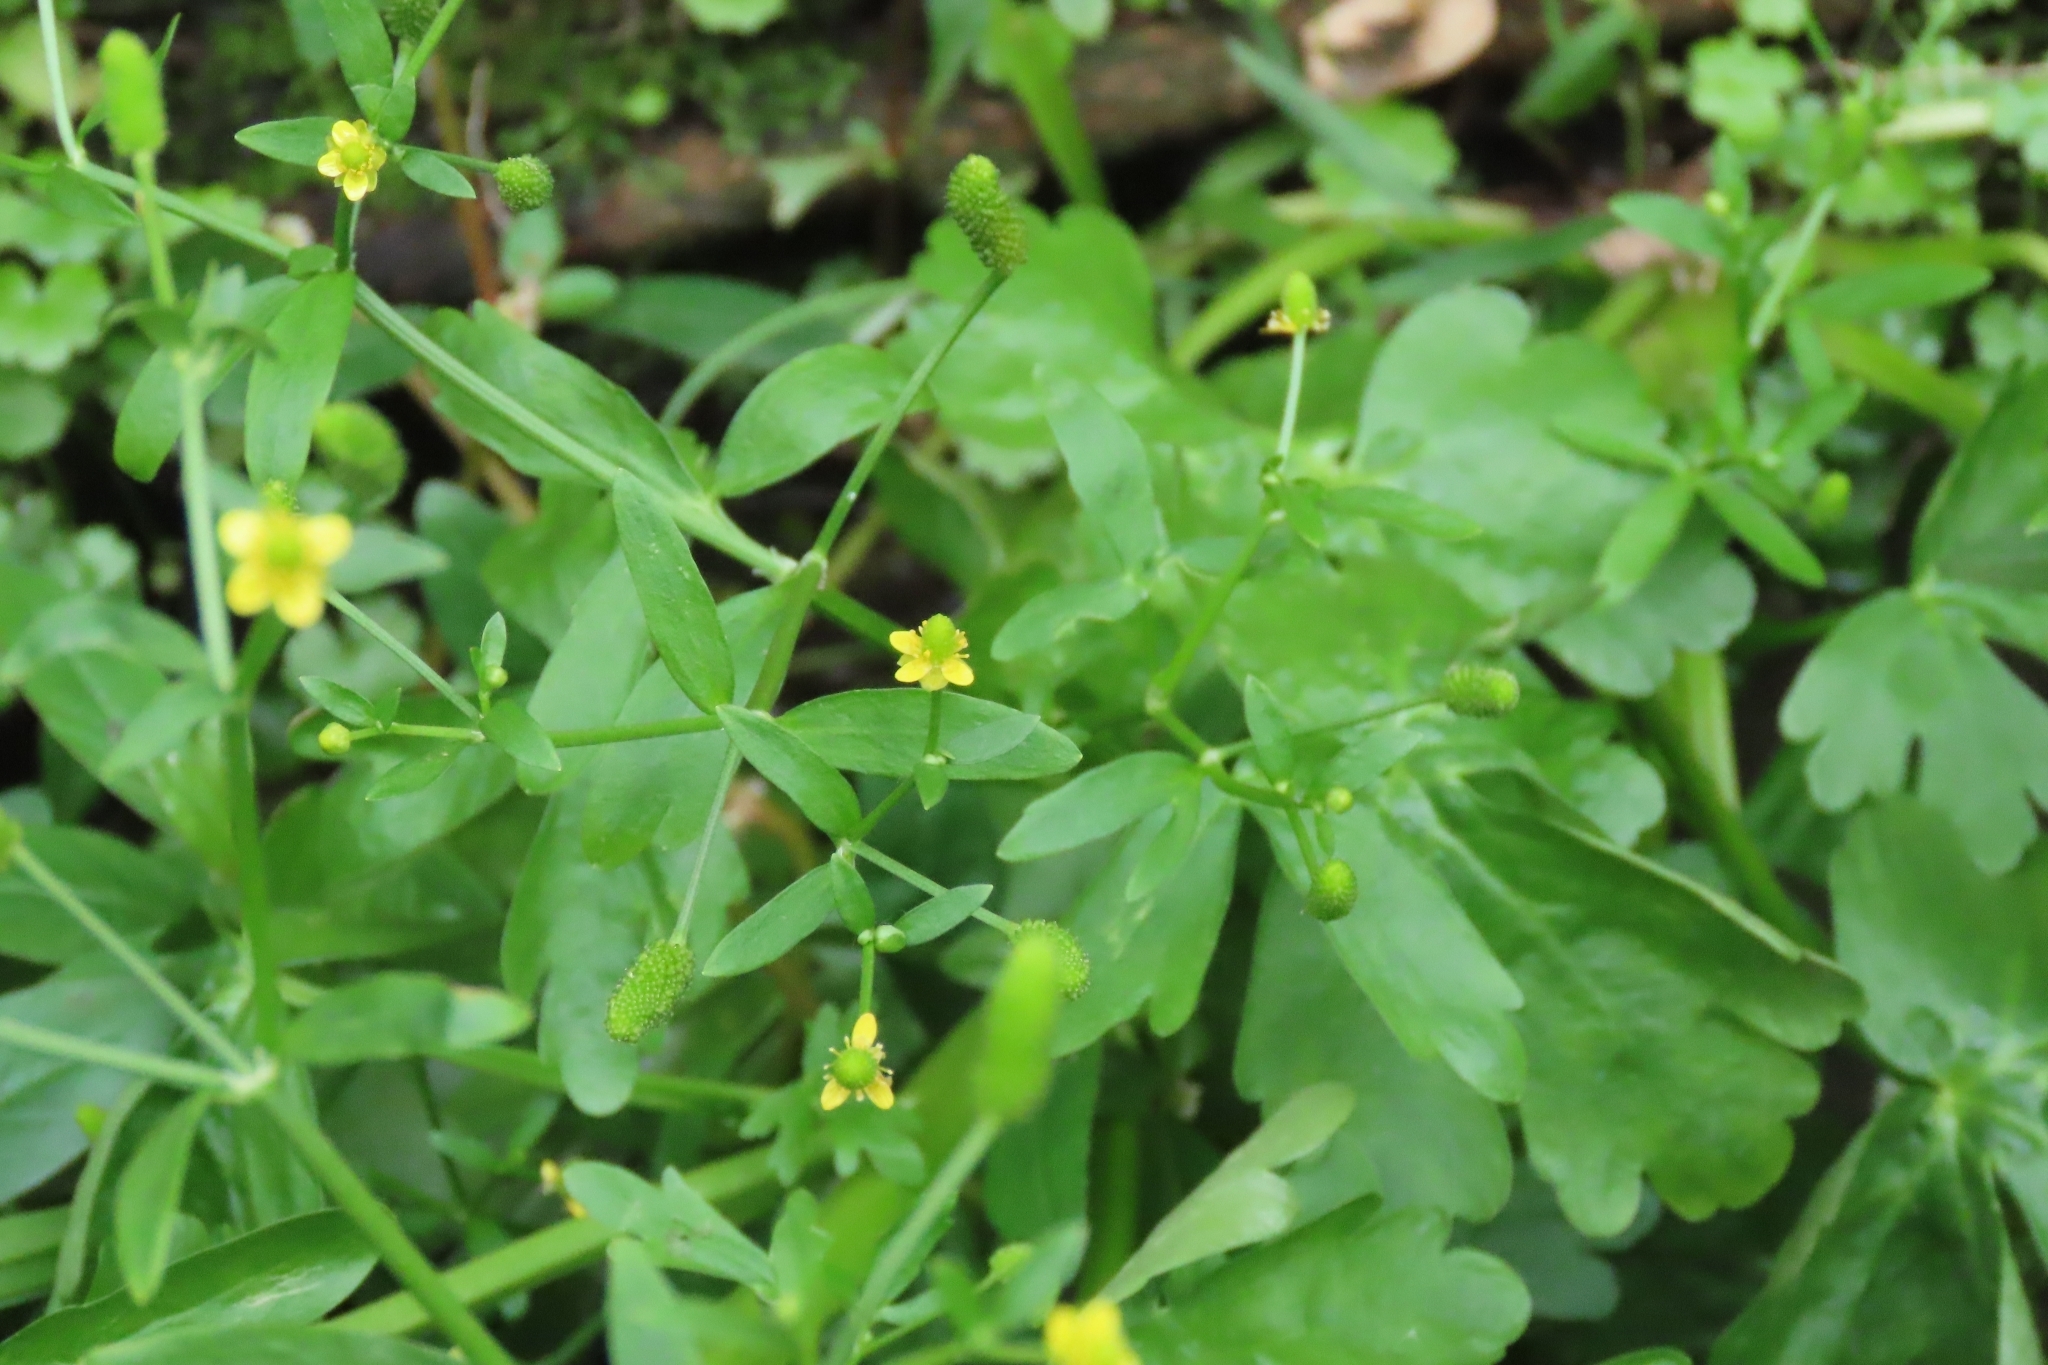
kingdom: Plantae
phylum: Tracheophyta
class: Magnoliopsida
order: Ranunculales
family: Ranunculaceae
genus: Ranunculus
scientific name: Ranunculus sceleratus
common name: Celery-leaved buttercup
